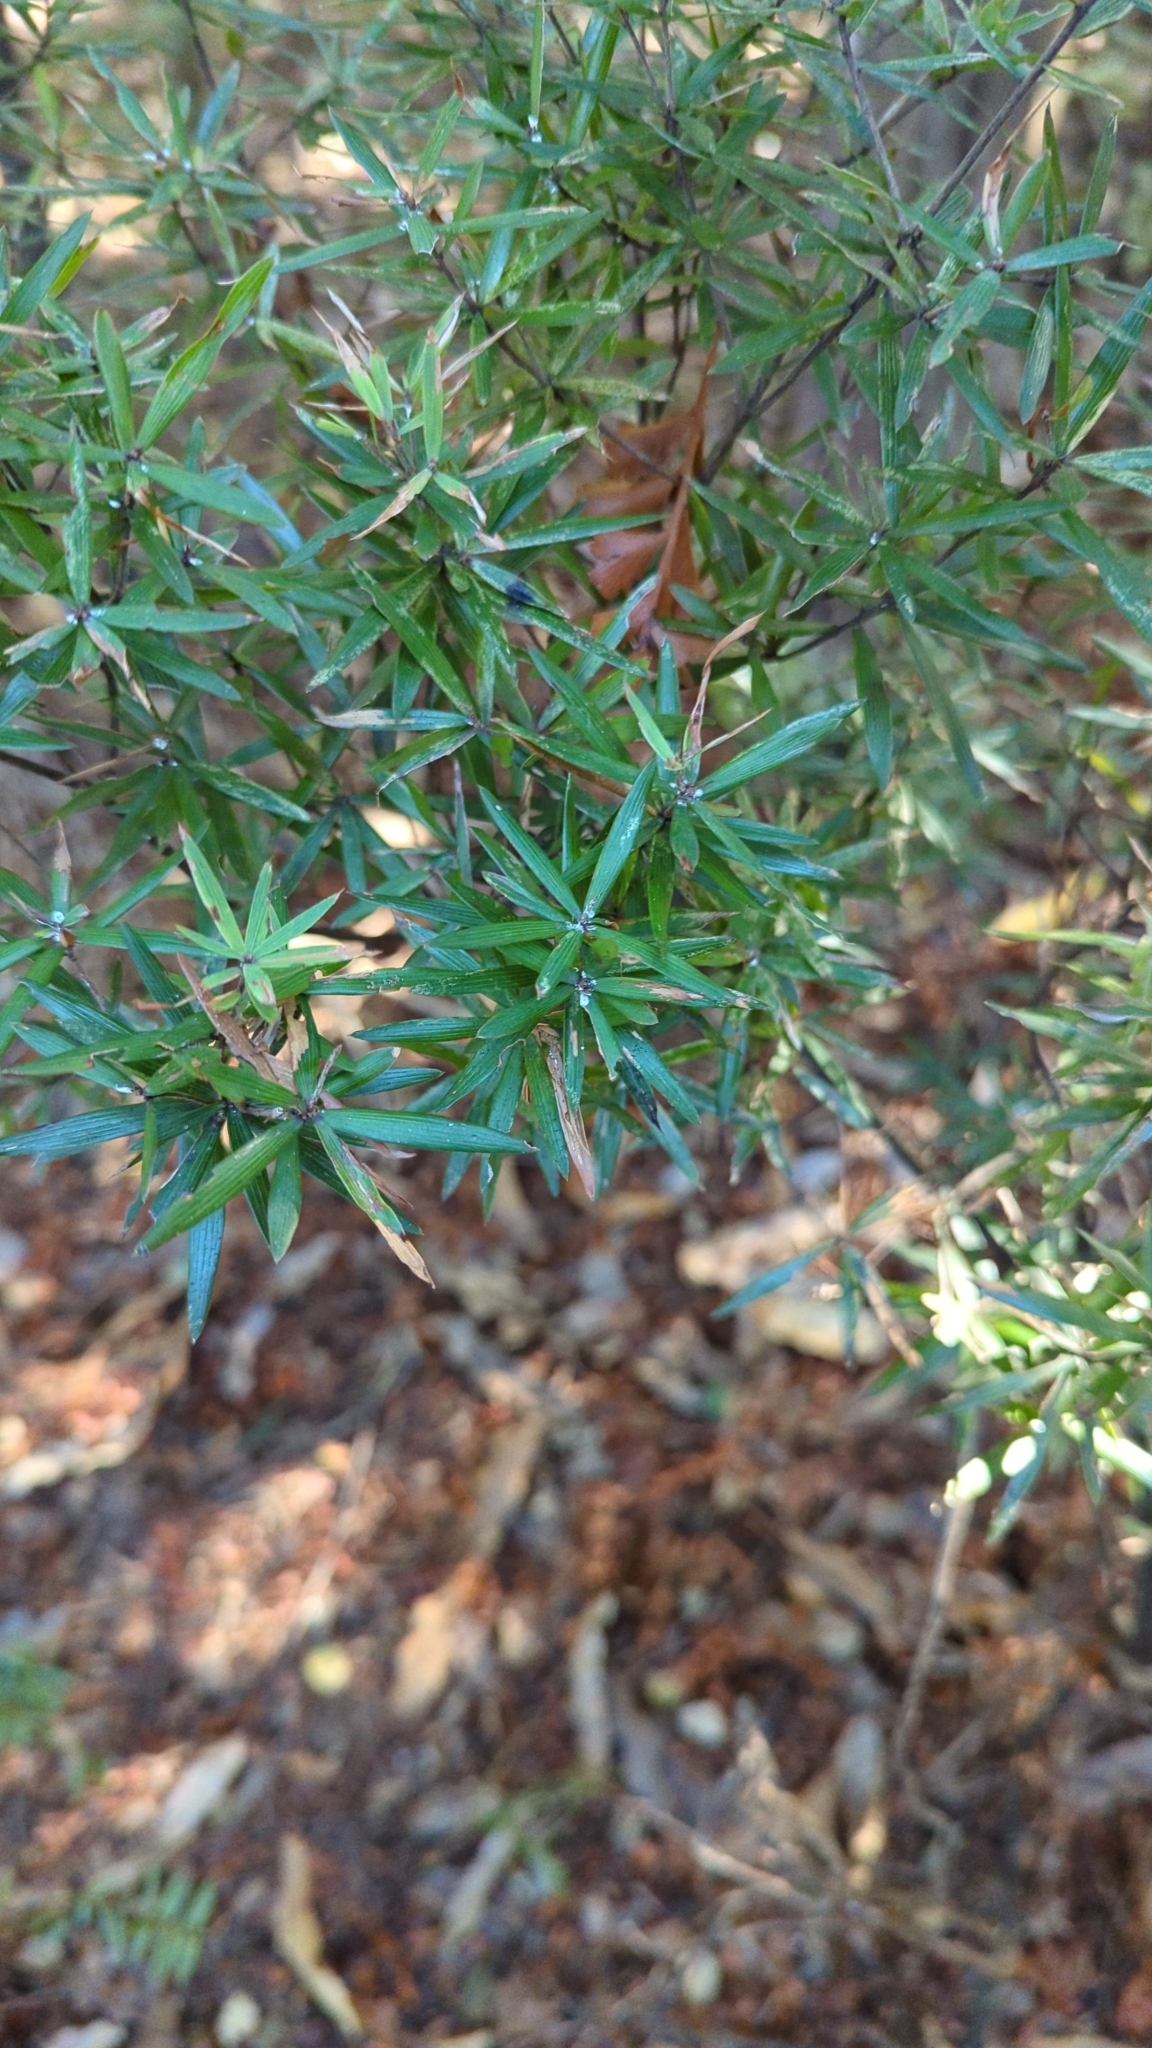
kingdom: Plantae
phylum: Tracheophyta
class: Magnoliopsida
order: Ericales
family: Ericaceae
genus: Leucopogon
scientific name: Leucopogon fasciculatus
